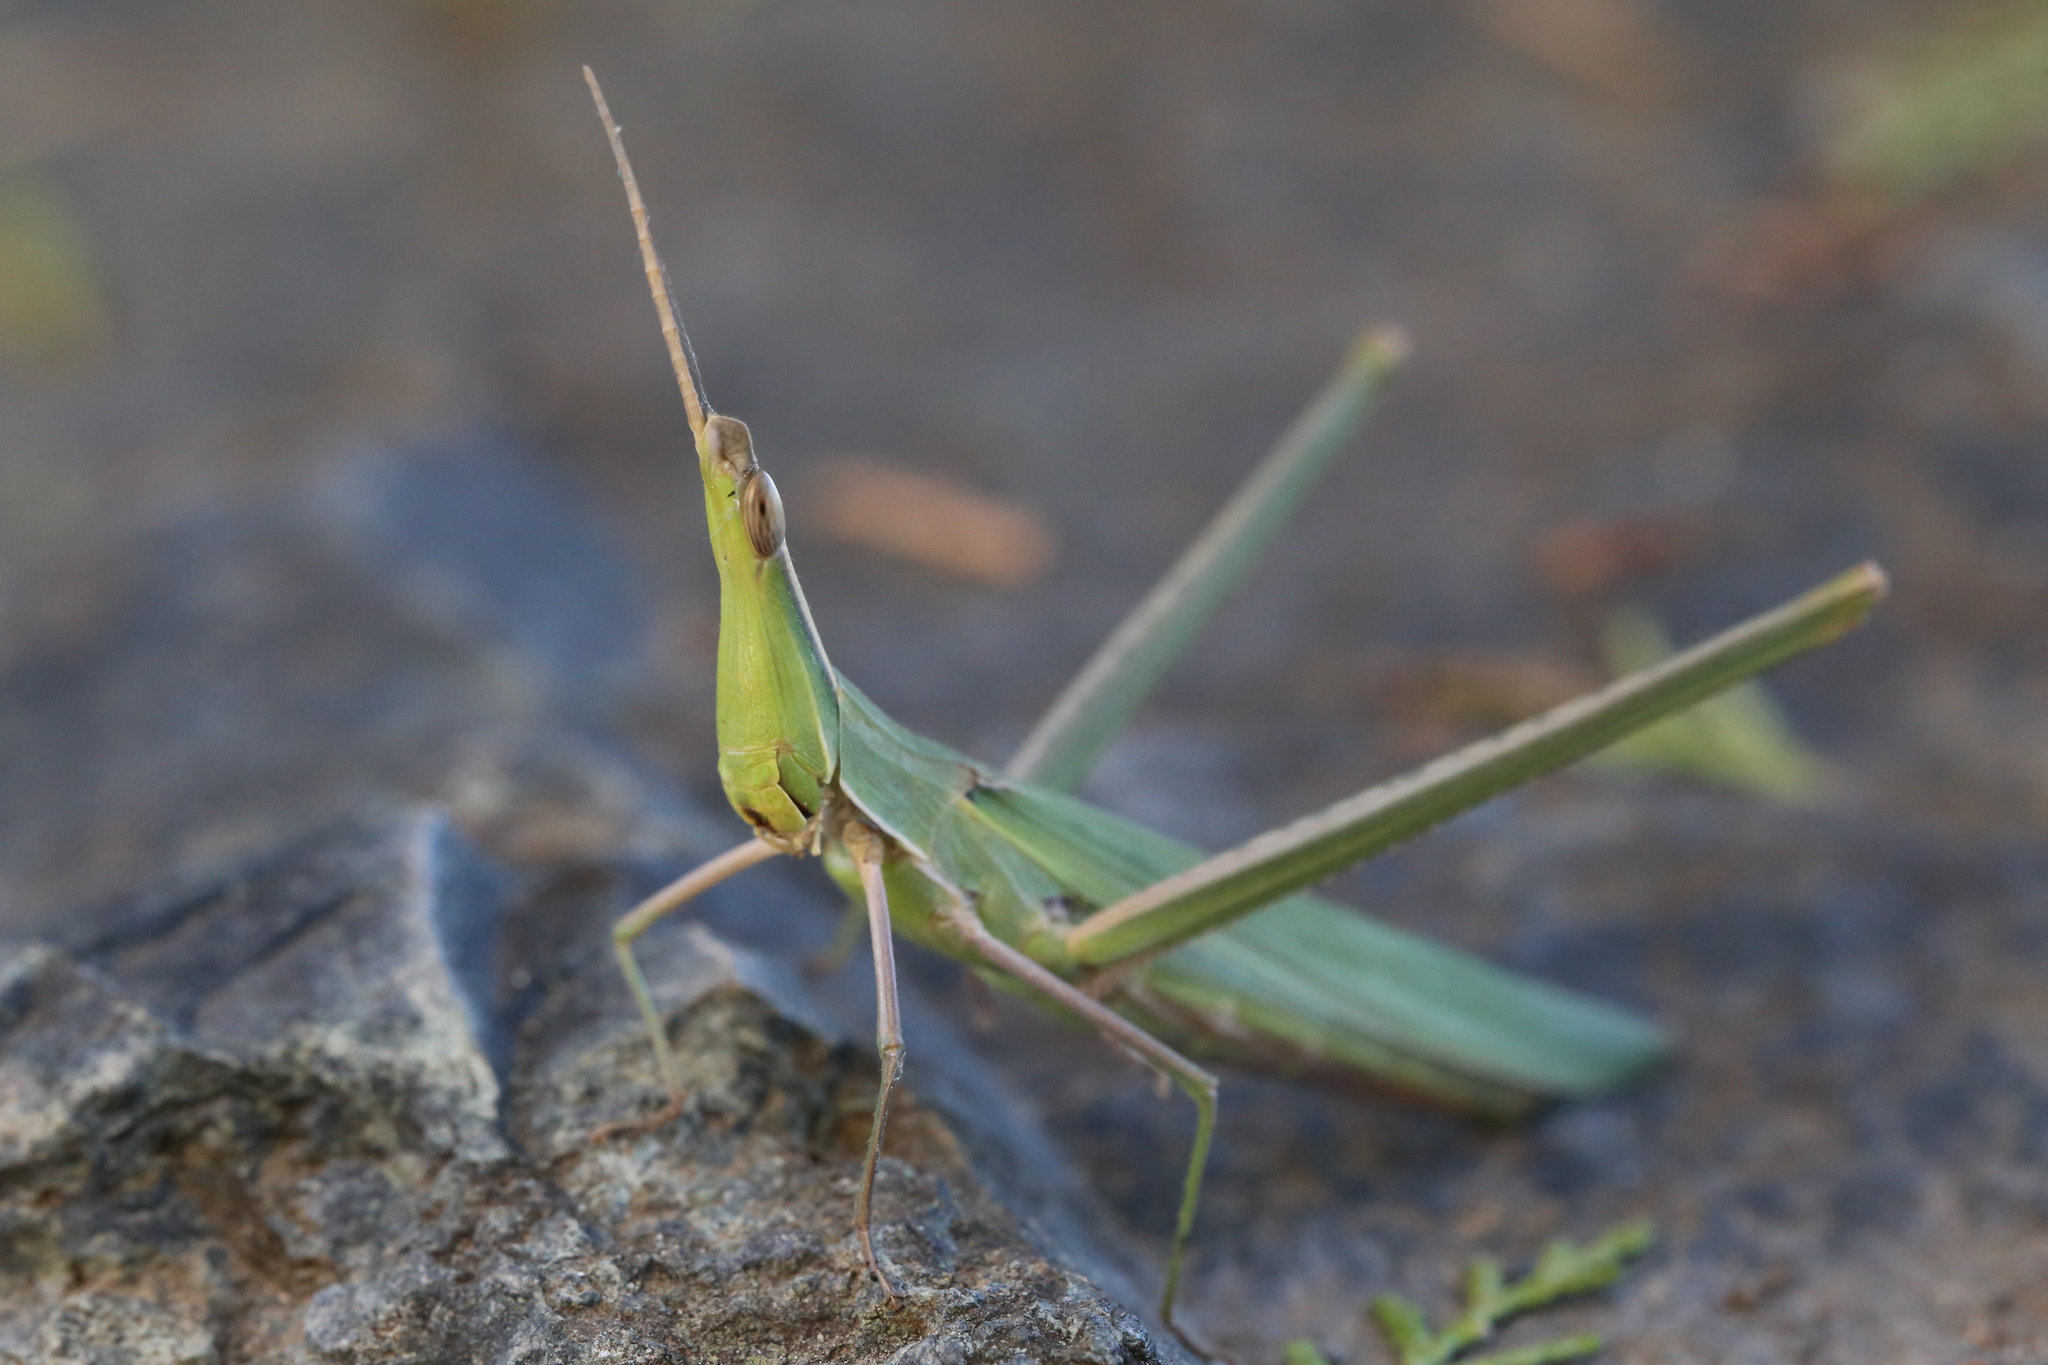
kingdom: Animalia
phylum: Arthropoda
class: Insecta
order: Orthoptera
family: Acrididae
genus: Acrida
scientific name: Acrida ungarica
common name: Common cone-headed grasshopper
